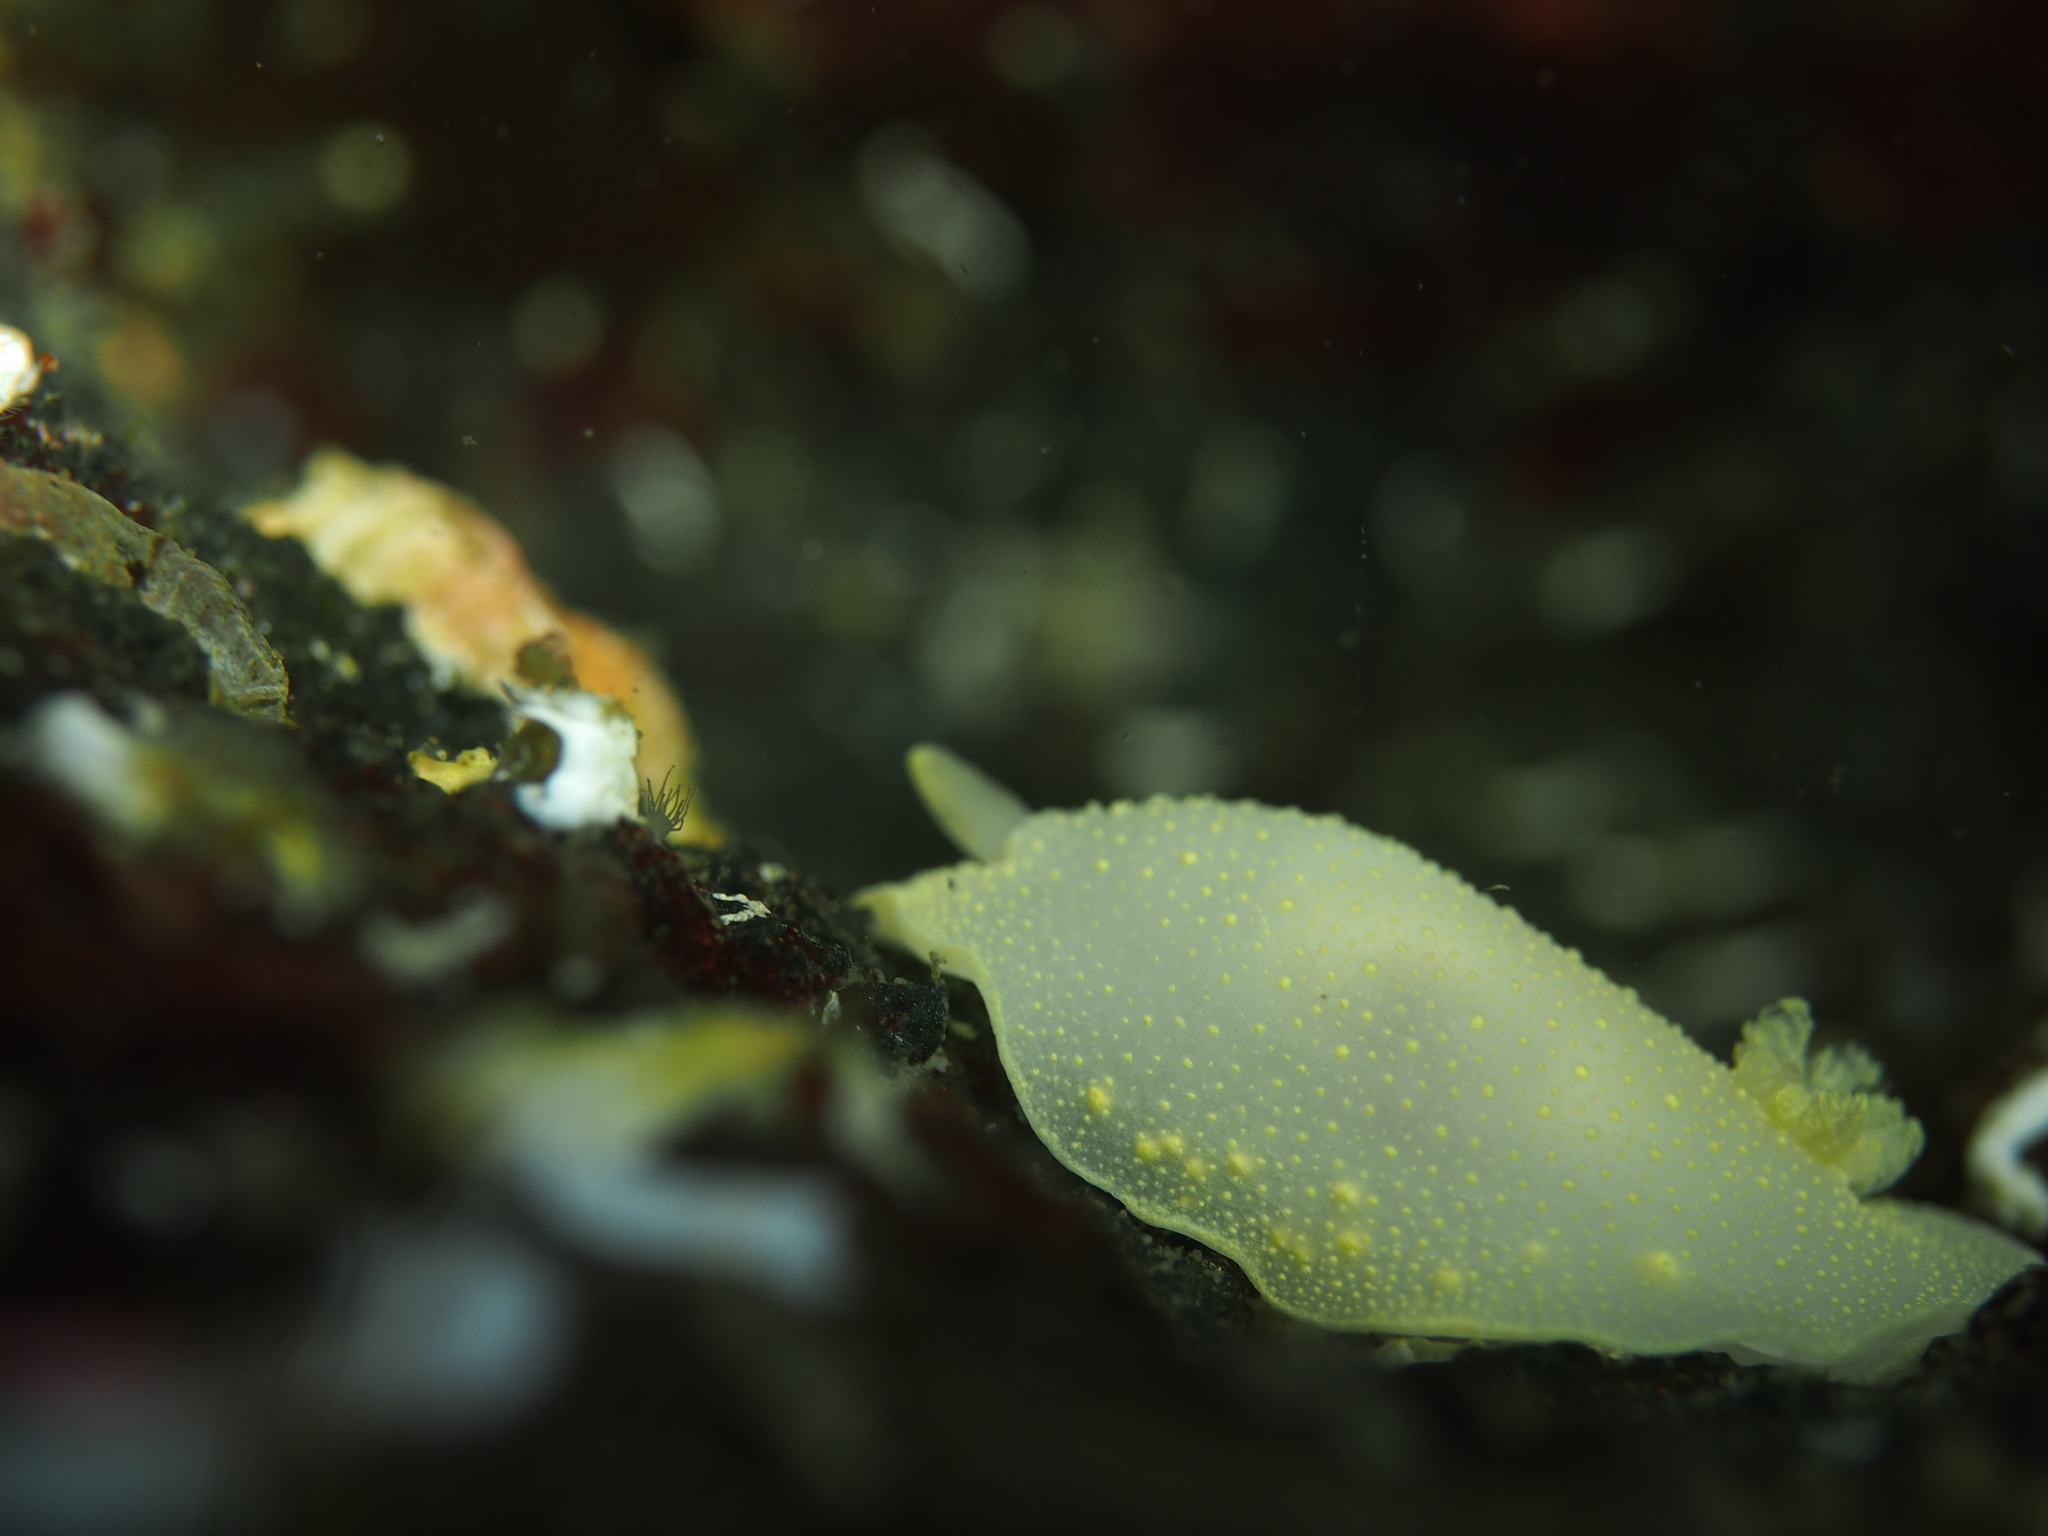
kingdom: Animalia
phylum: Mollusca
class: Gastropoda
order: Nudibranchia
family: Cadlinidae
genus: Cadlina
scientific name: Cadlina laevis
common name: White atlantic cadlina
